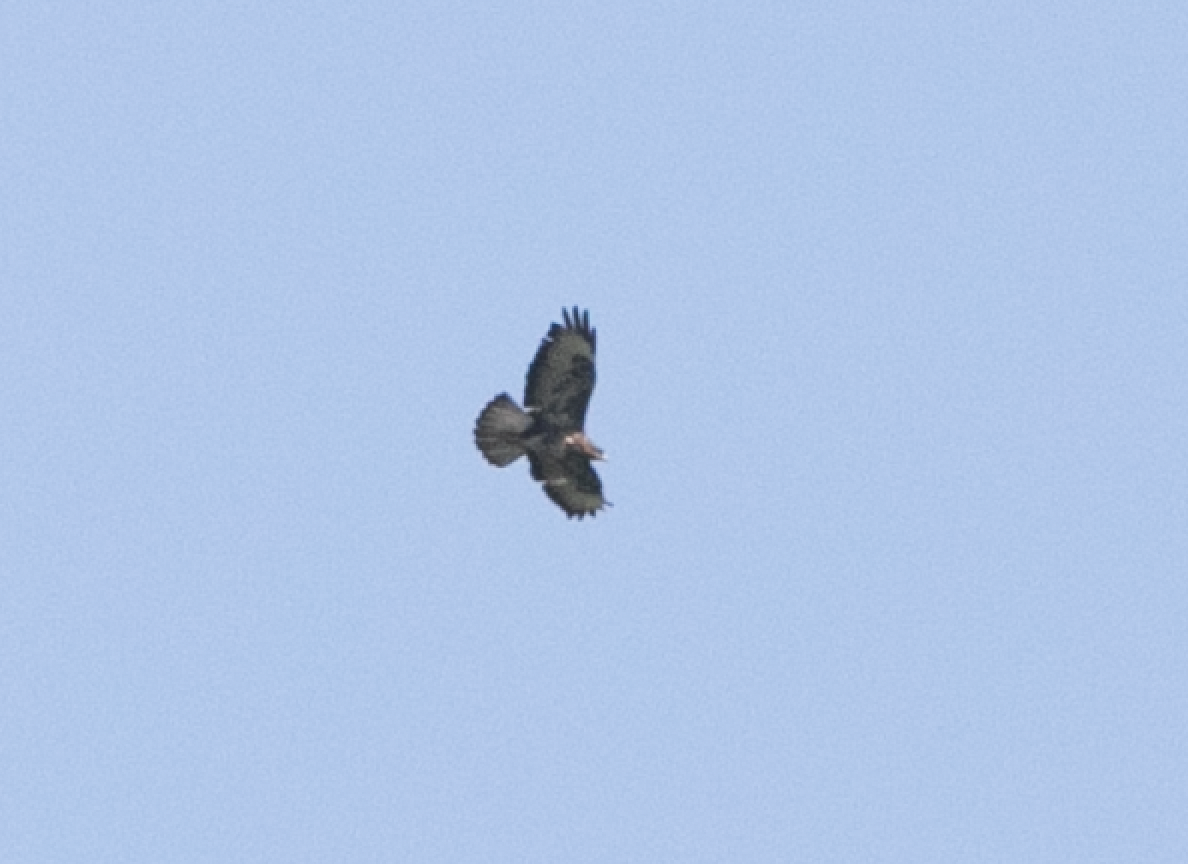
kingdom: Animalia
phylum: Chordata
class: Aves
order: Accipitriformes
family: Accipitridae
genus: Buteo
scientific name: Buteo buteo
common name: Common buzzard
